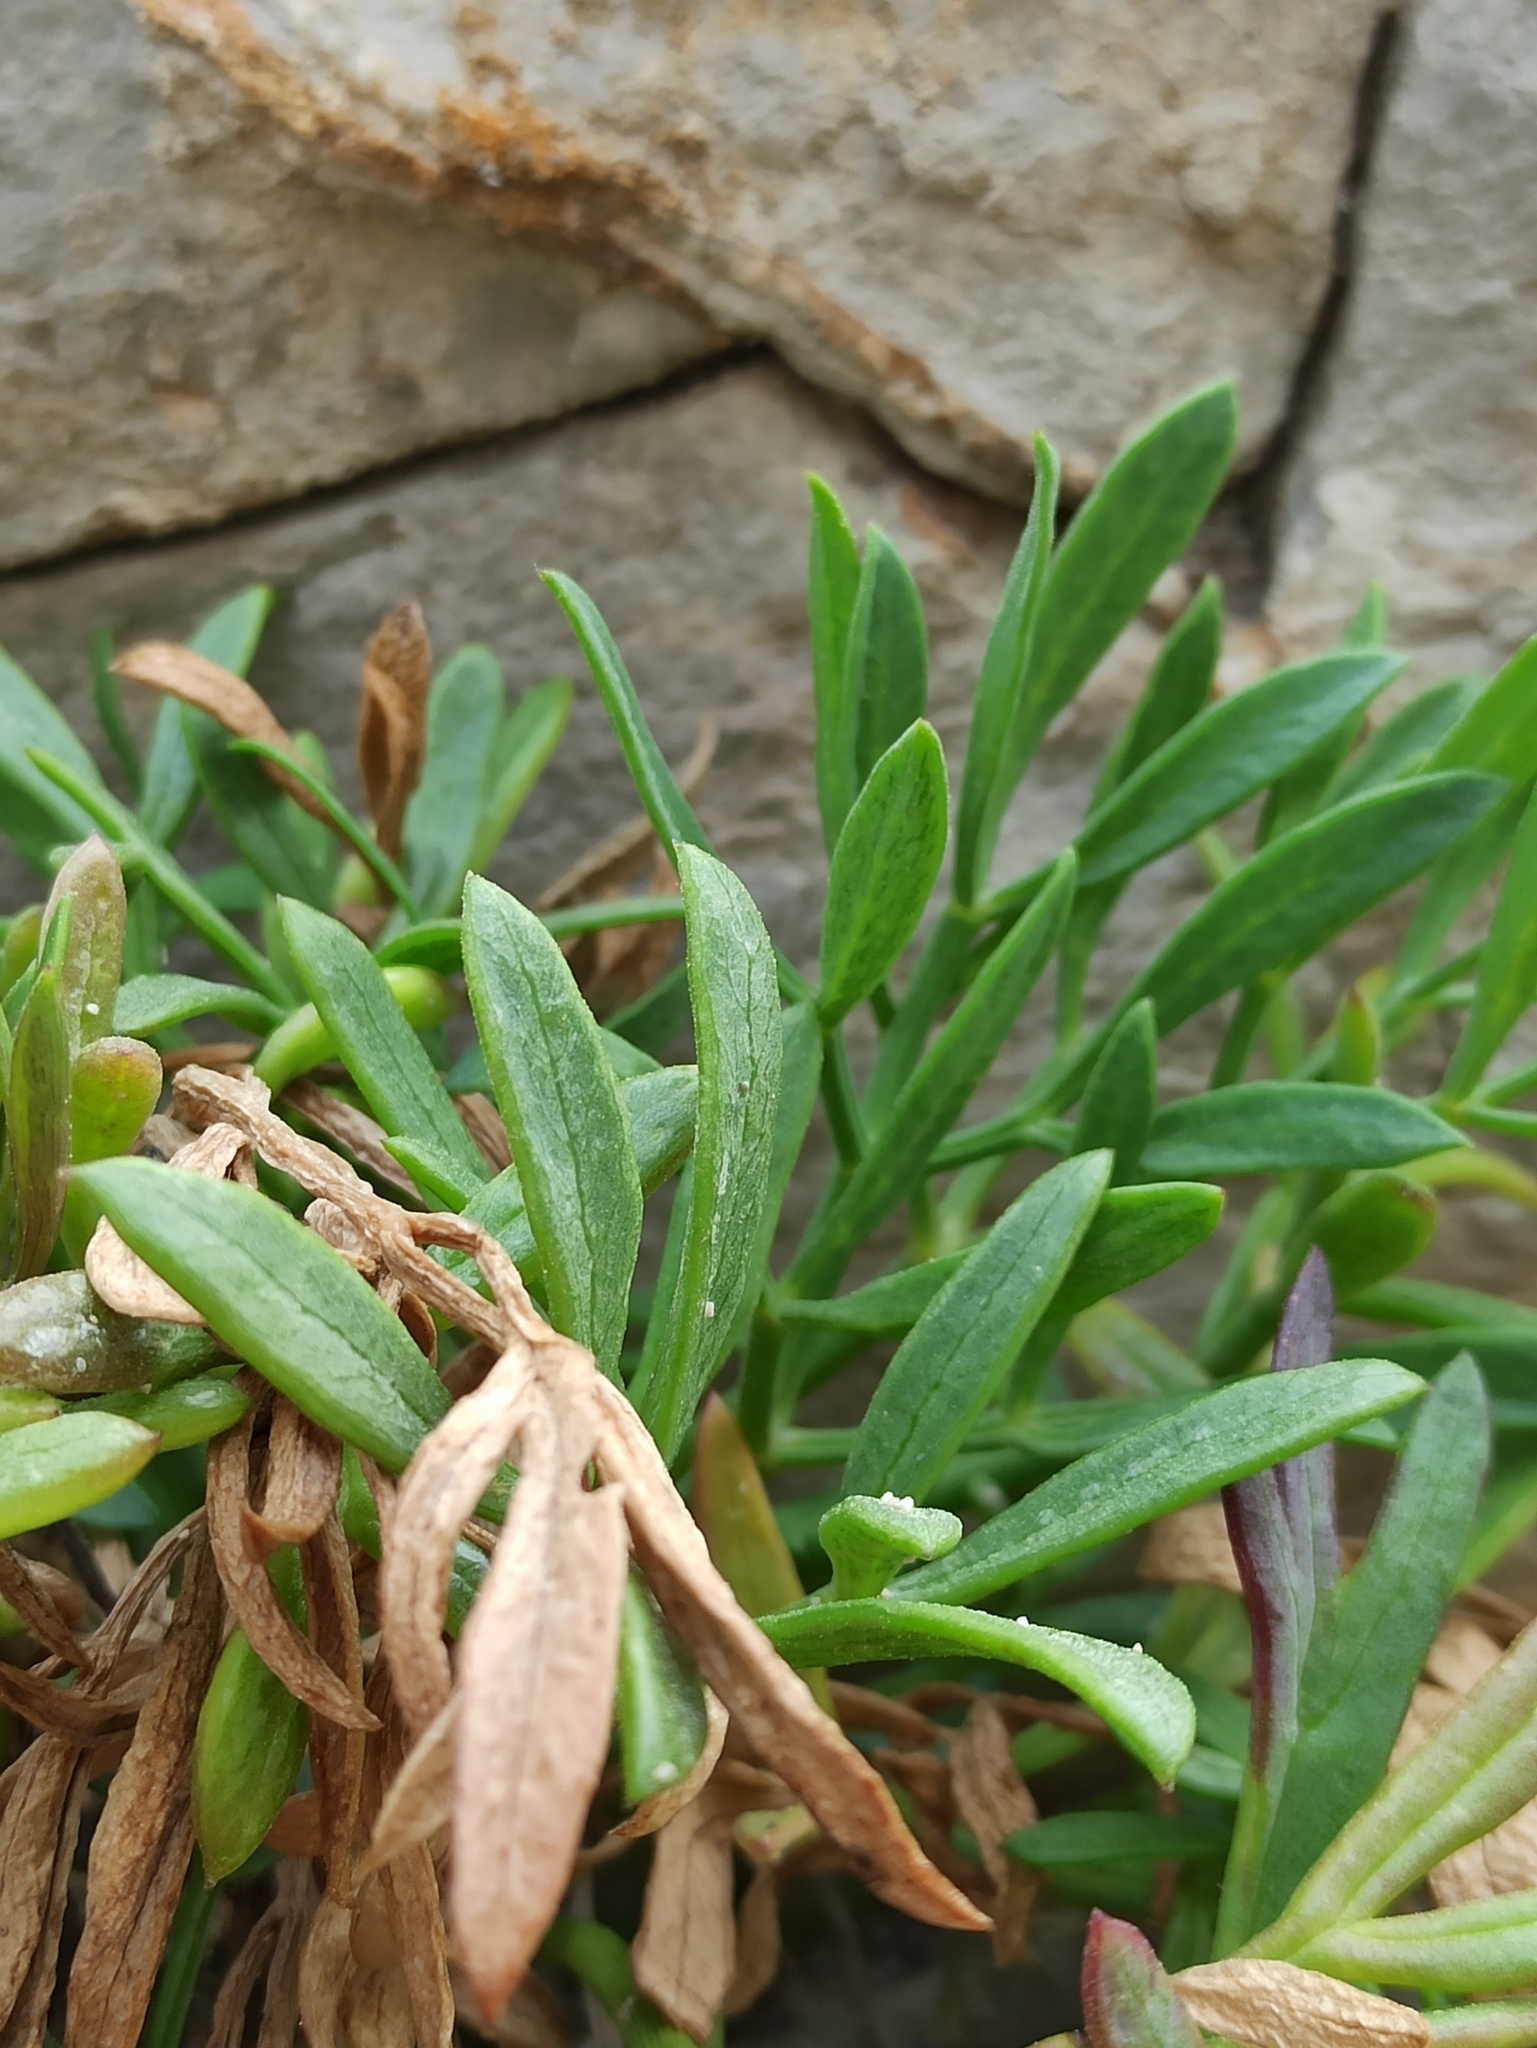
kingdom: Plantae
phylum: Tracheophyta
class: Magnoliopsida
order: Apiales
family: Apiaceae
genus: Crithmum
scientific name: Crithmum maritimum
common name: Rock samphire
